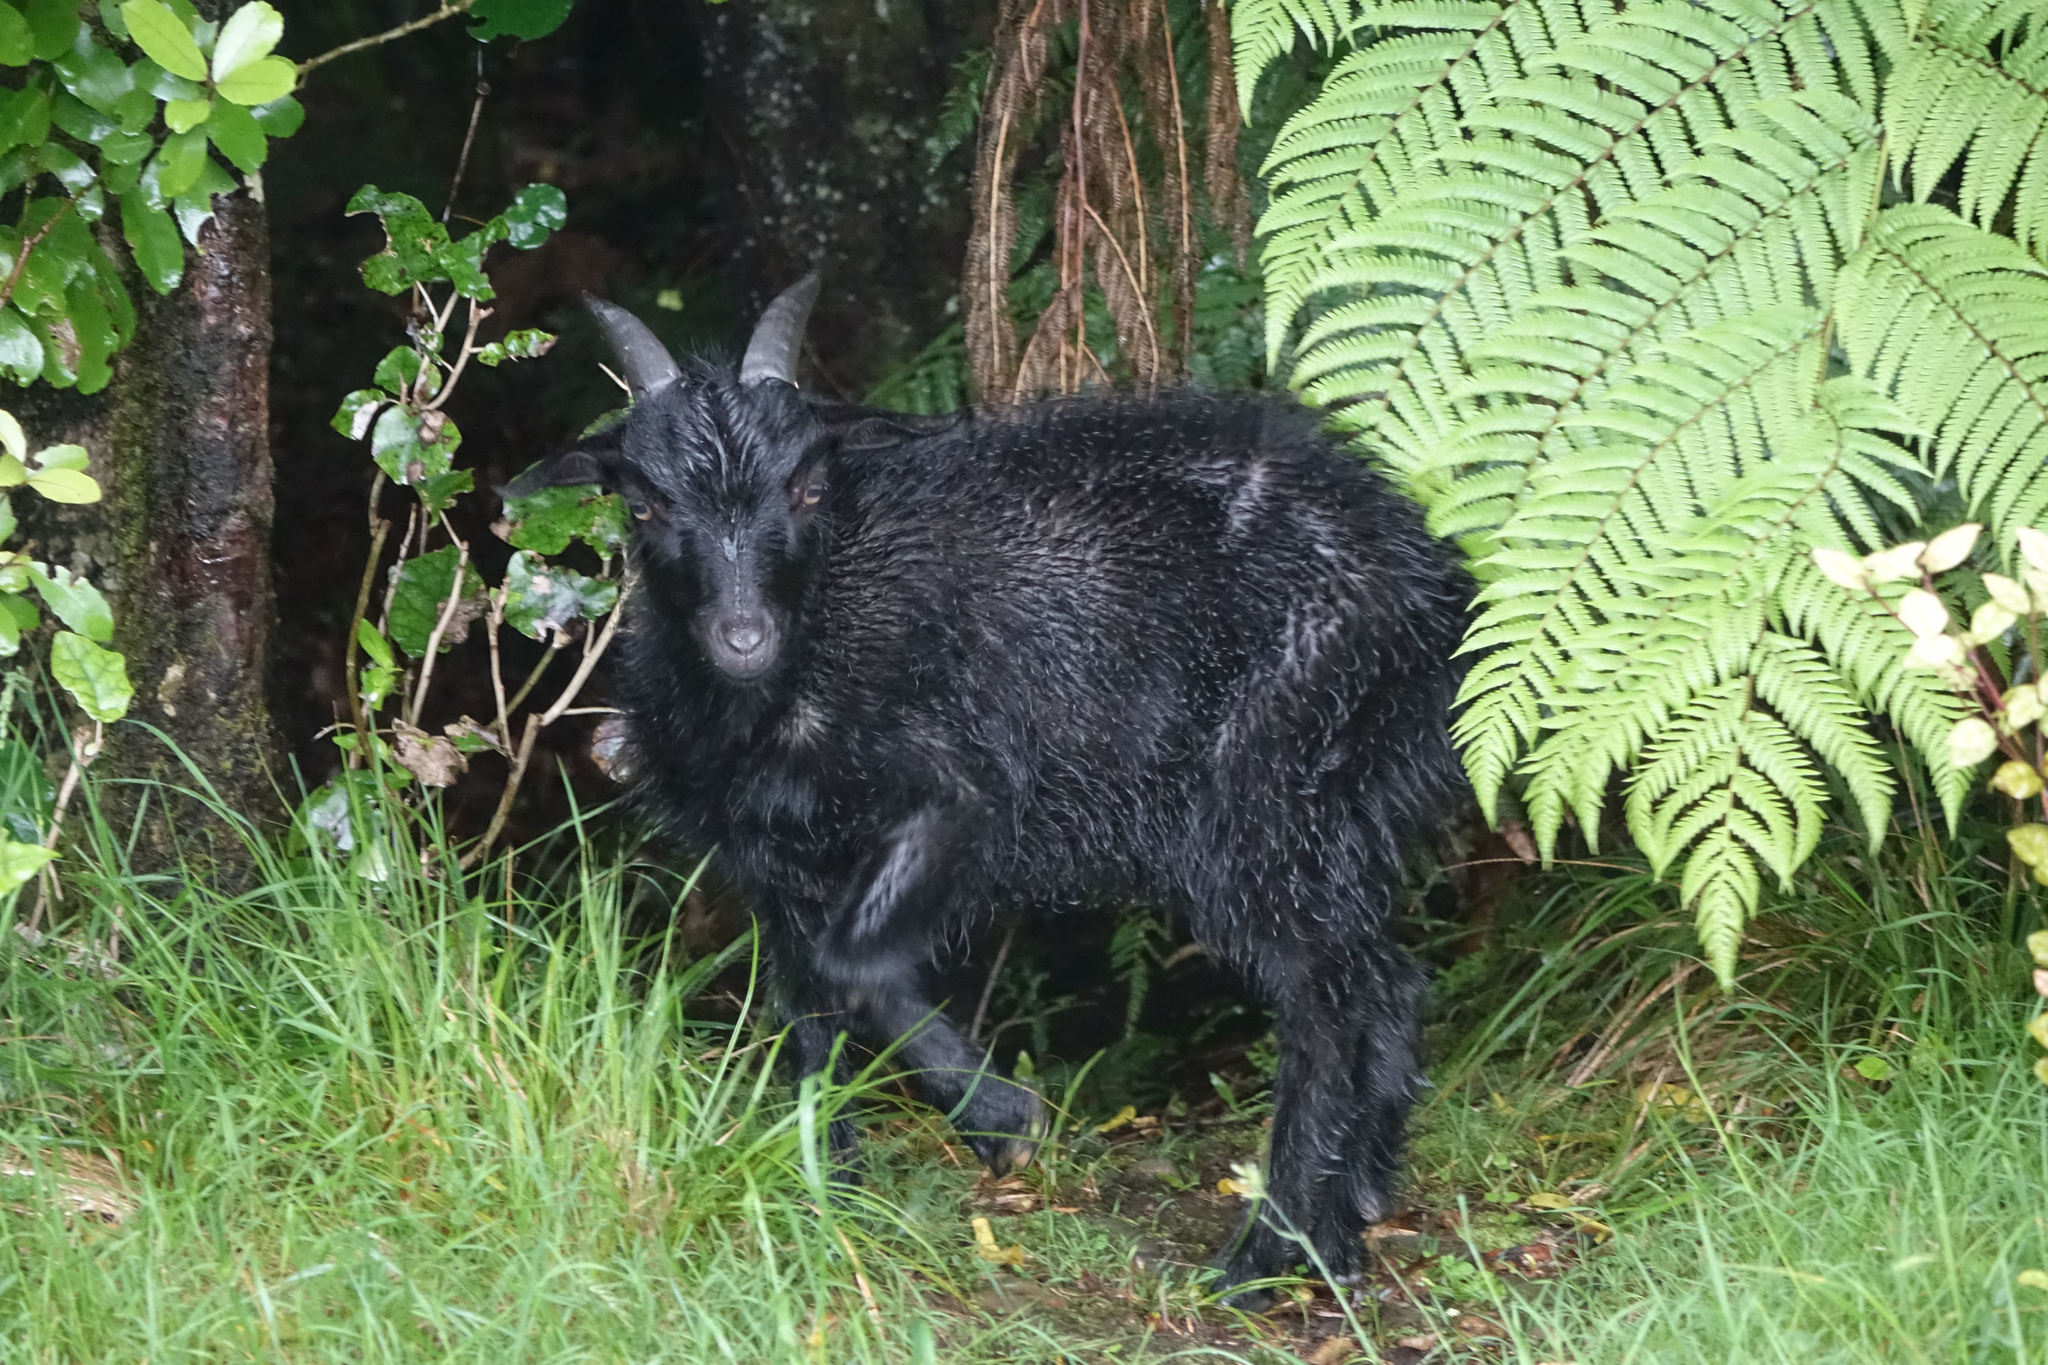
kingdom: Animalia
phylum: Chordata
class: Mammalia
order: Artiodactyla
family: Bovidae
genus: Capra
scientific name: Capra hircus
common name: Domestic goat
